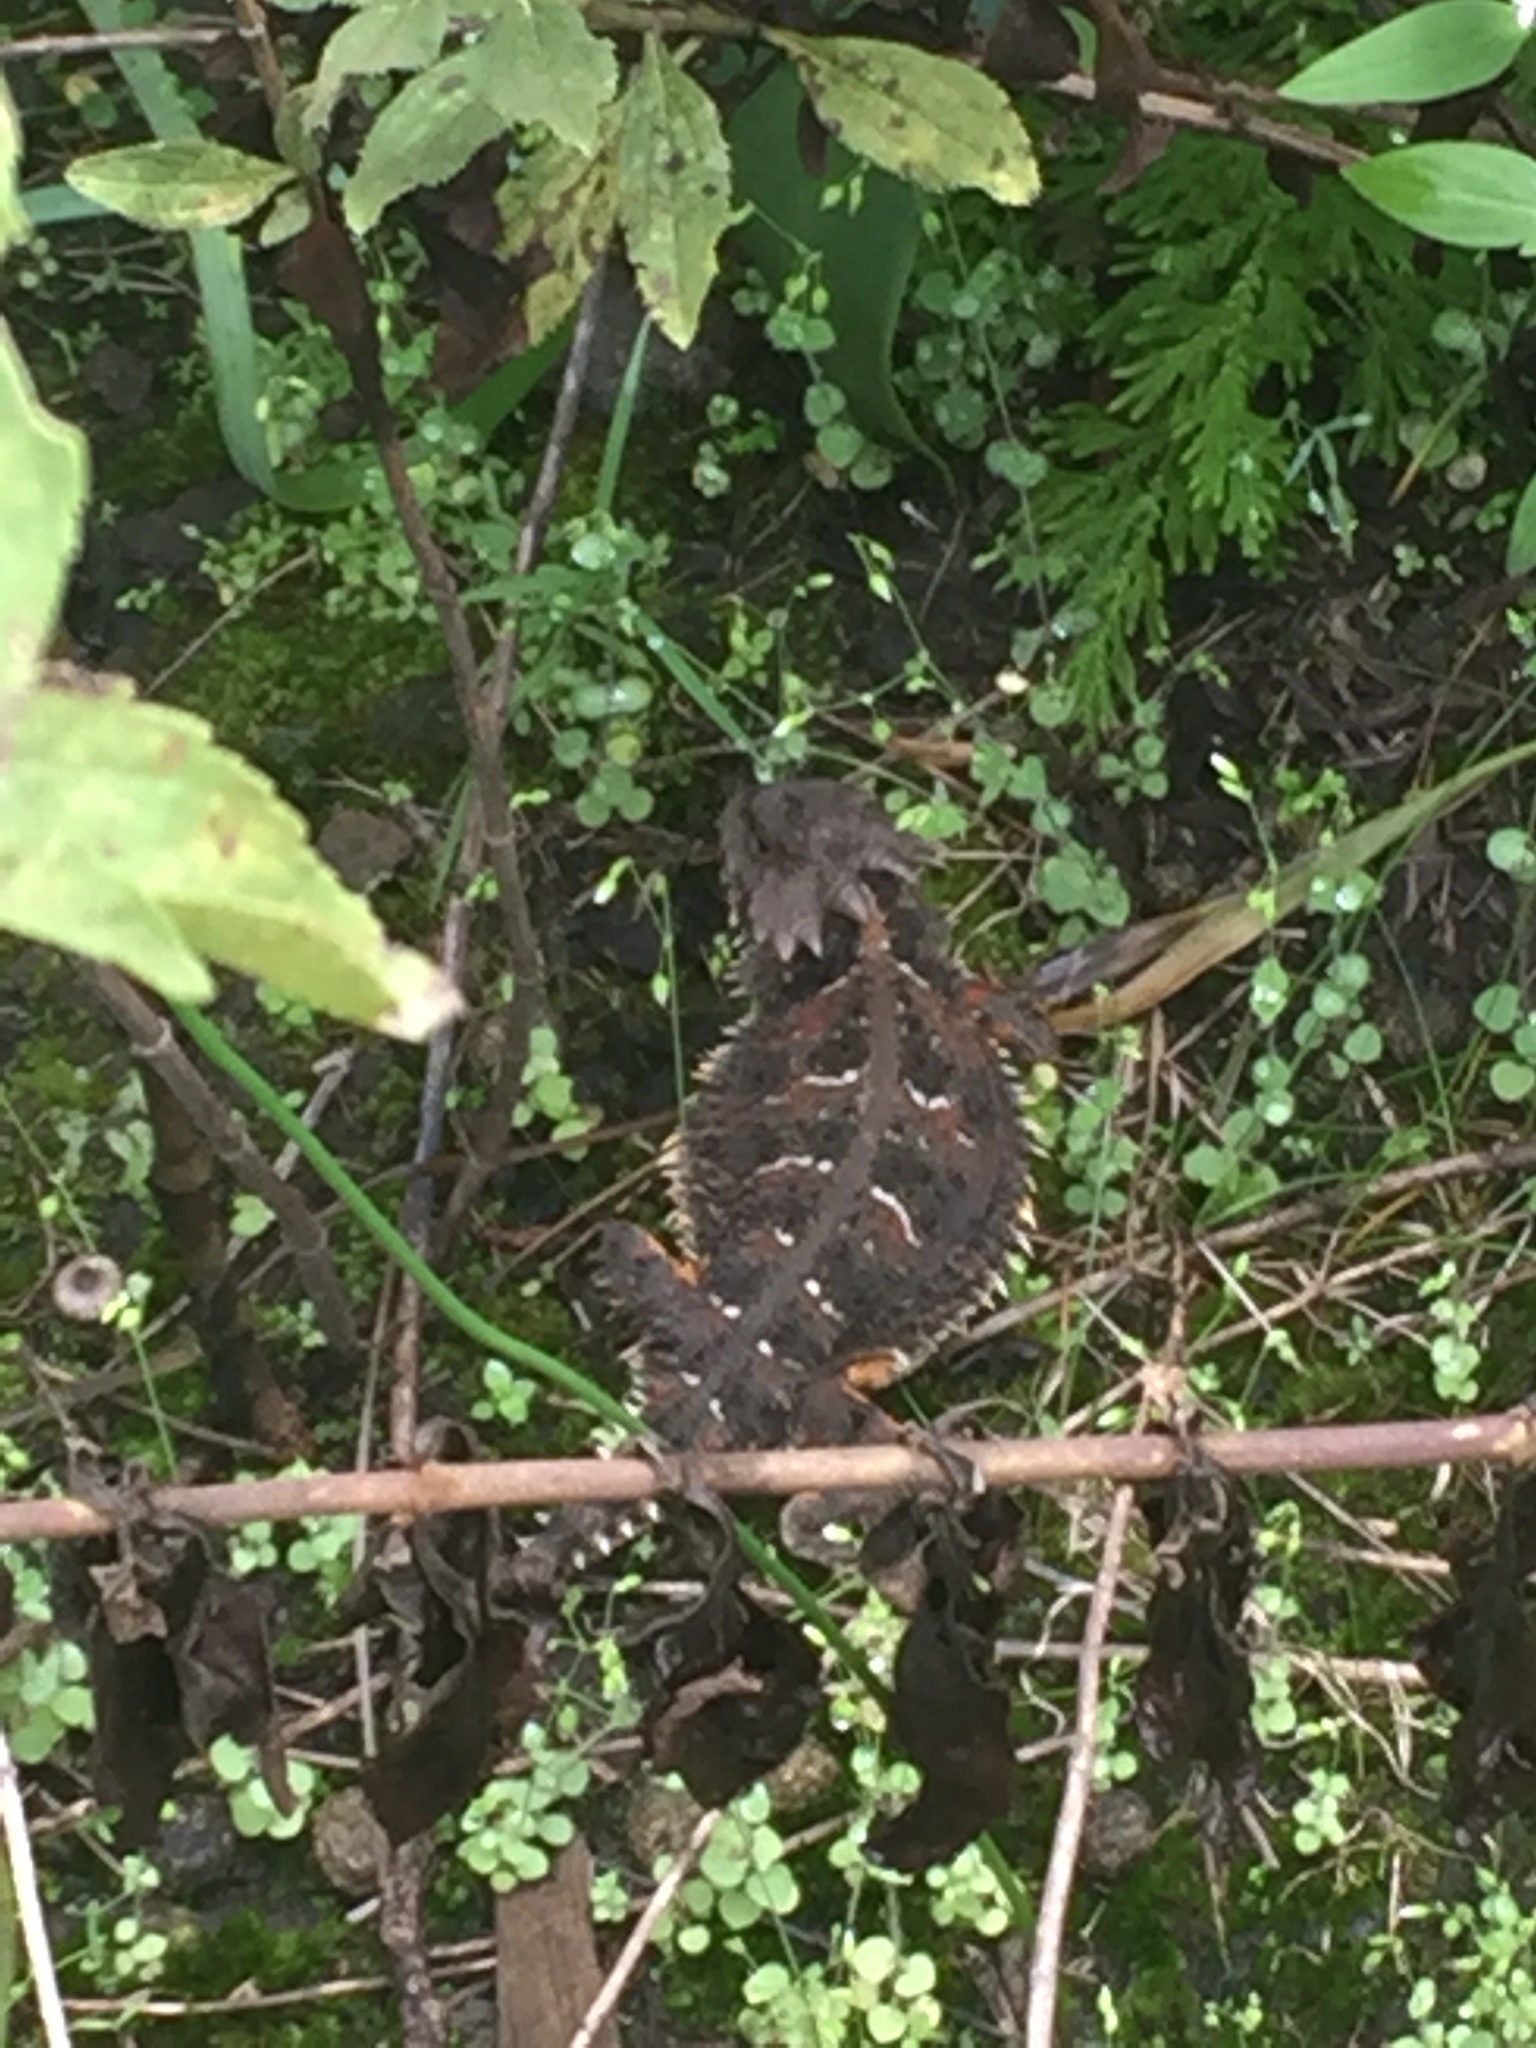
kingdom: Animalia
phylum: Chordata
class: Squamata
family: Phrynosomatidae
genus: Phrynosoma
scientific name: Phrynosoma orbiculare
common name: Mountain horned lizard
